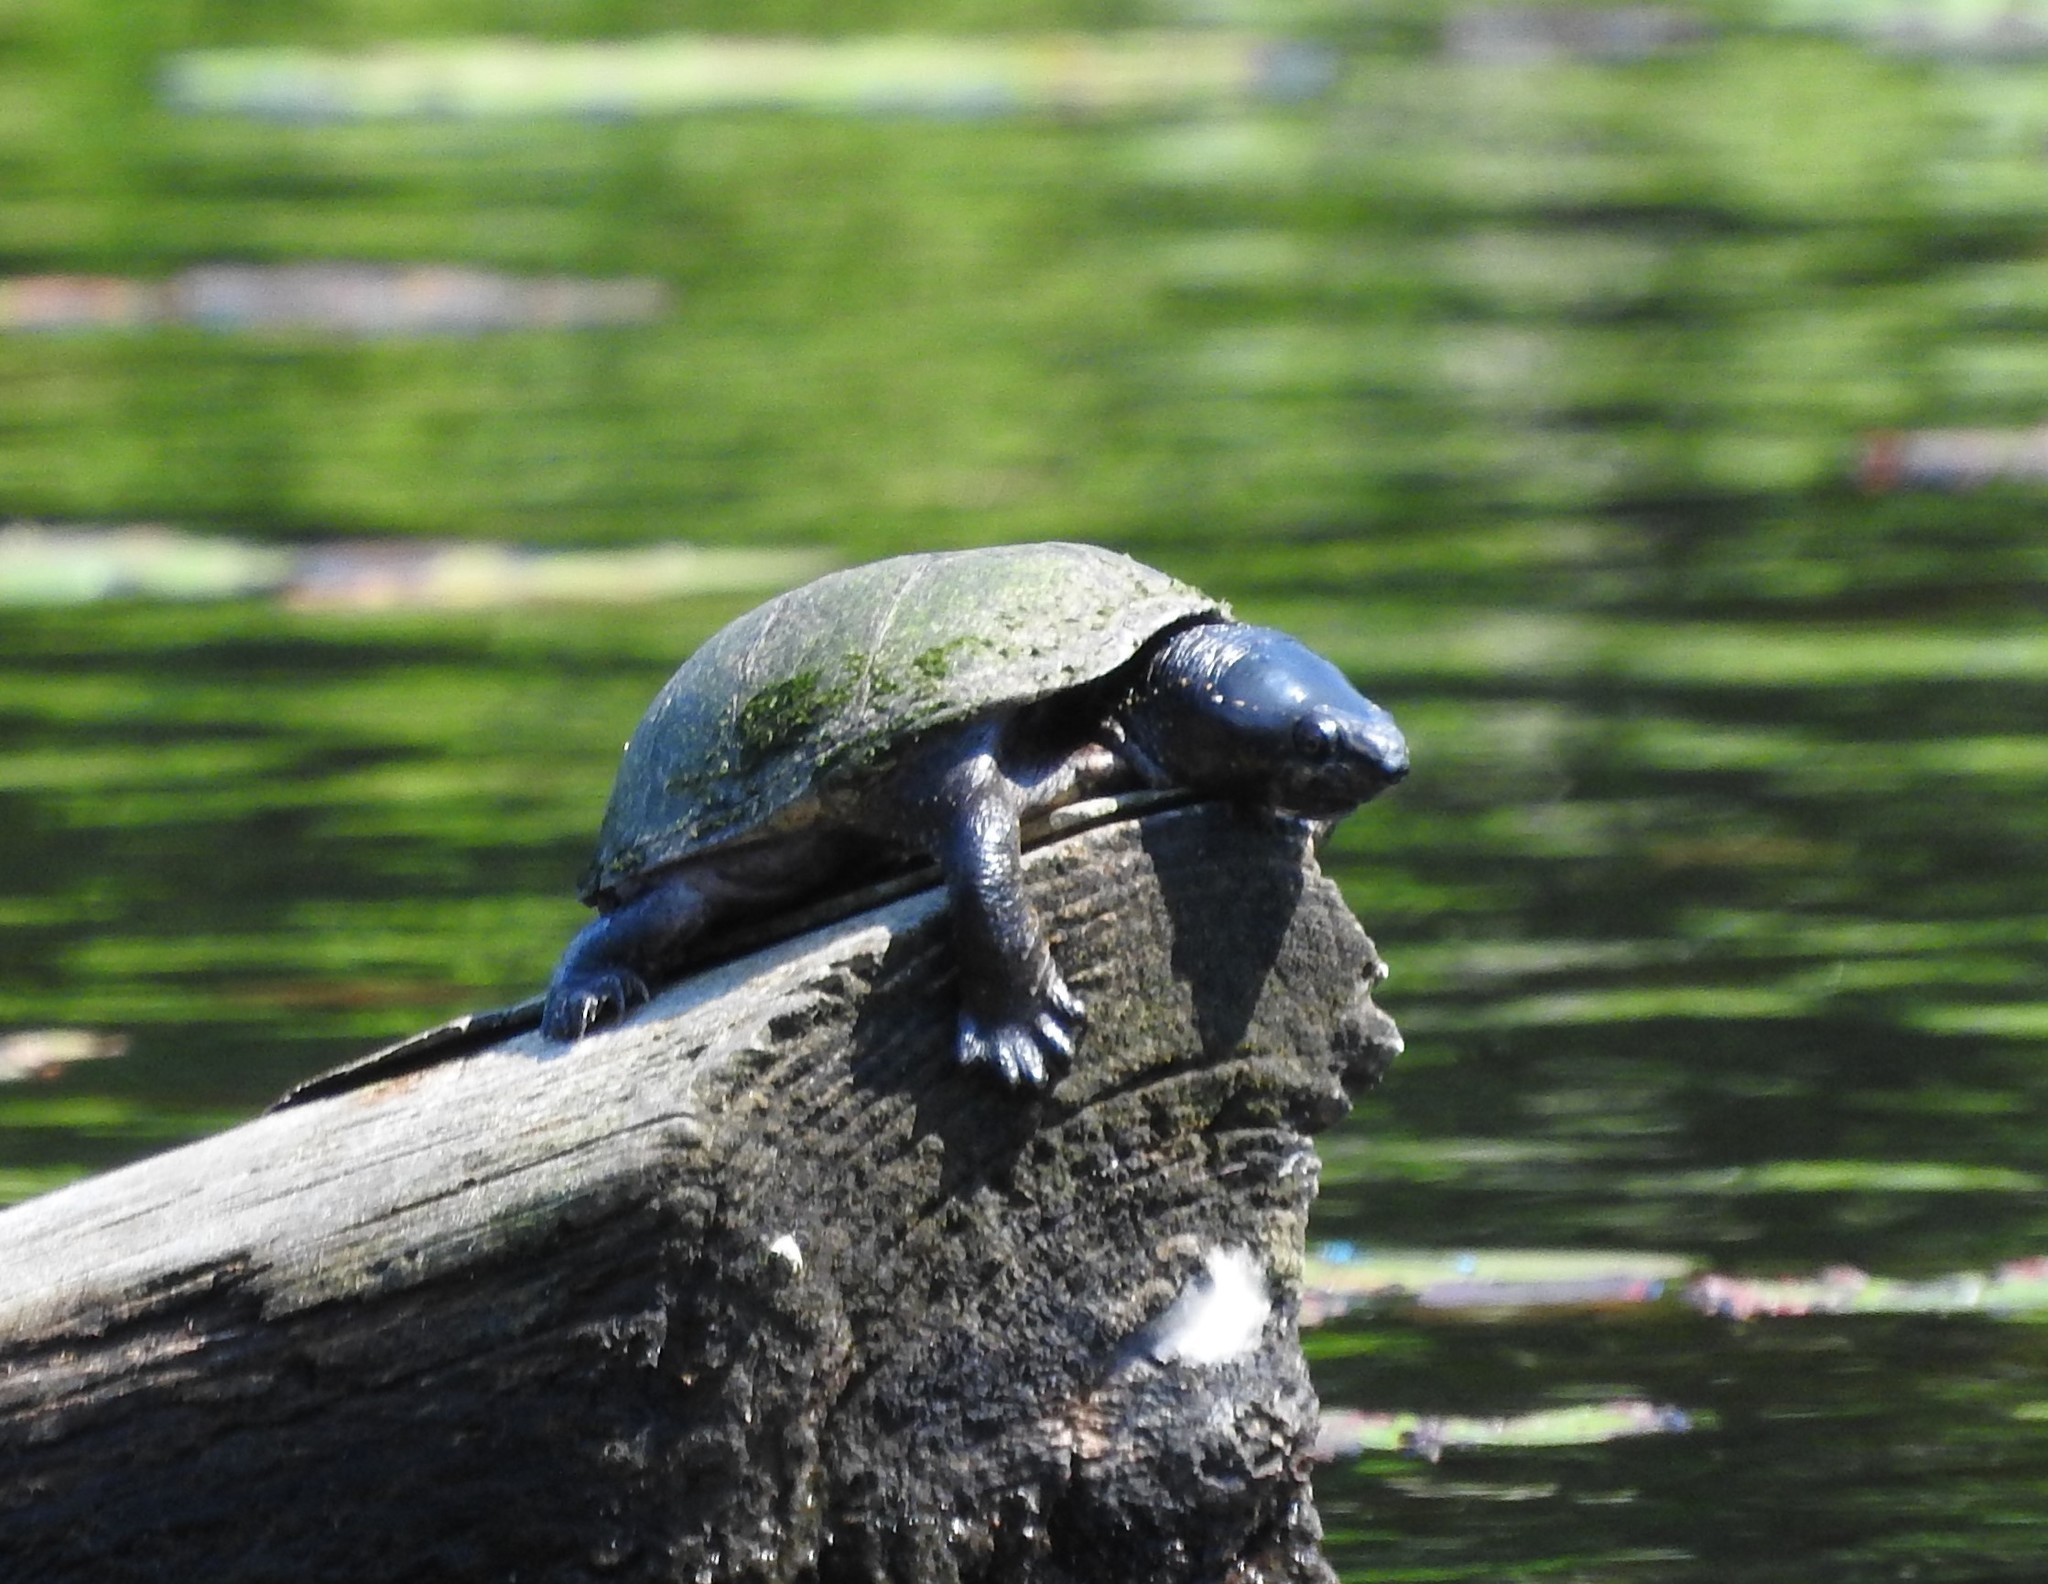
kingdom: Animalia
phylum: Chordata
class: Testudines
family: Kinosternidae
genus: Sternotherus
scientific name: Sternotherus odoratus
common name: Common musk turtle
